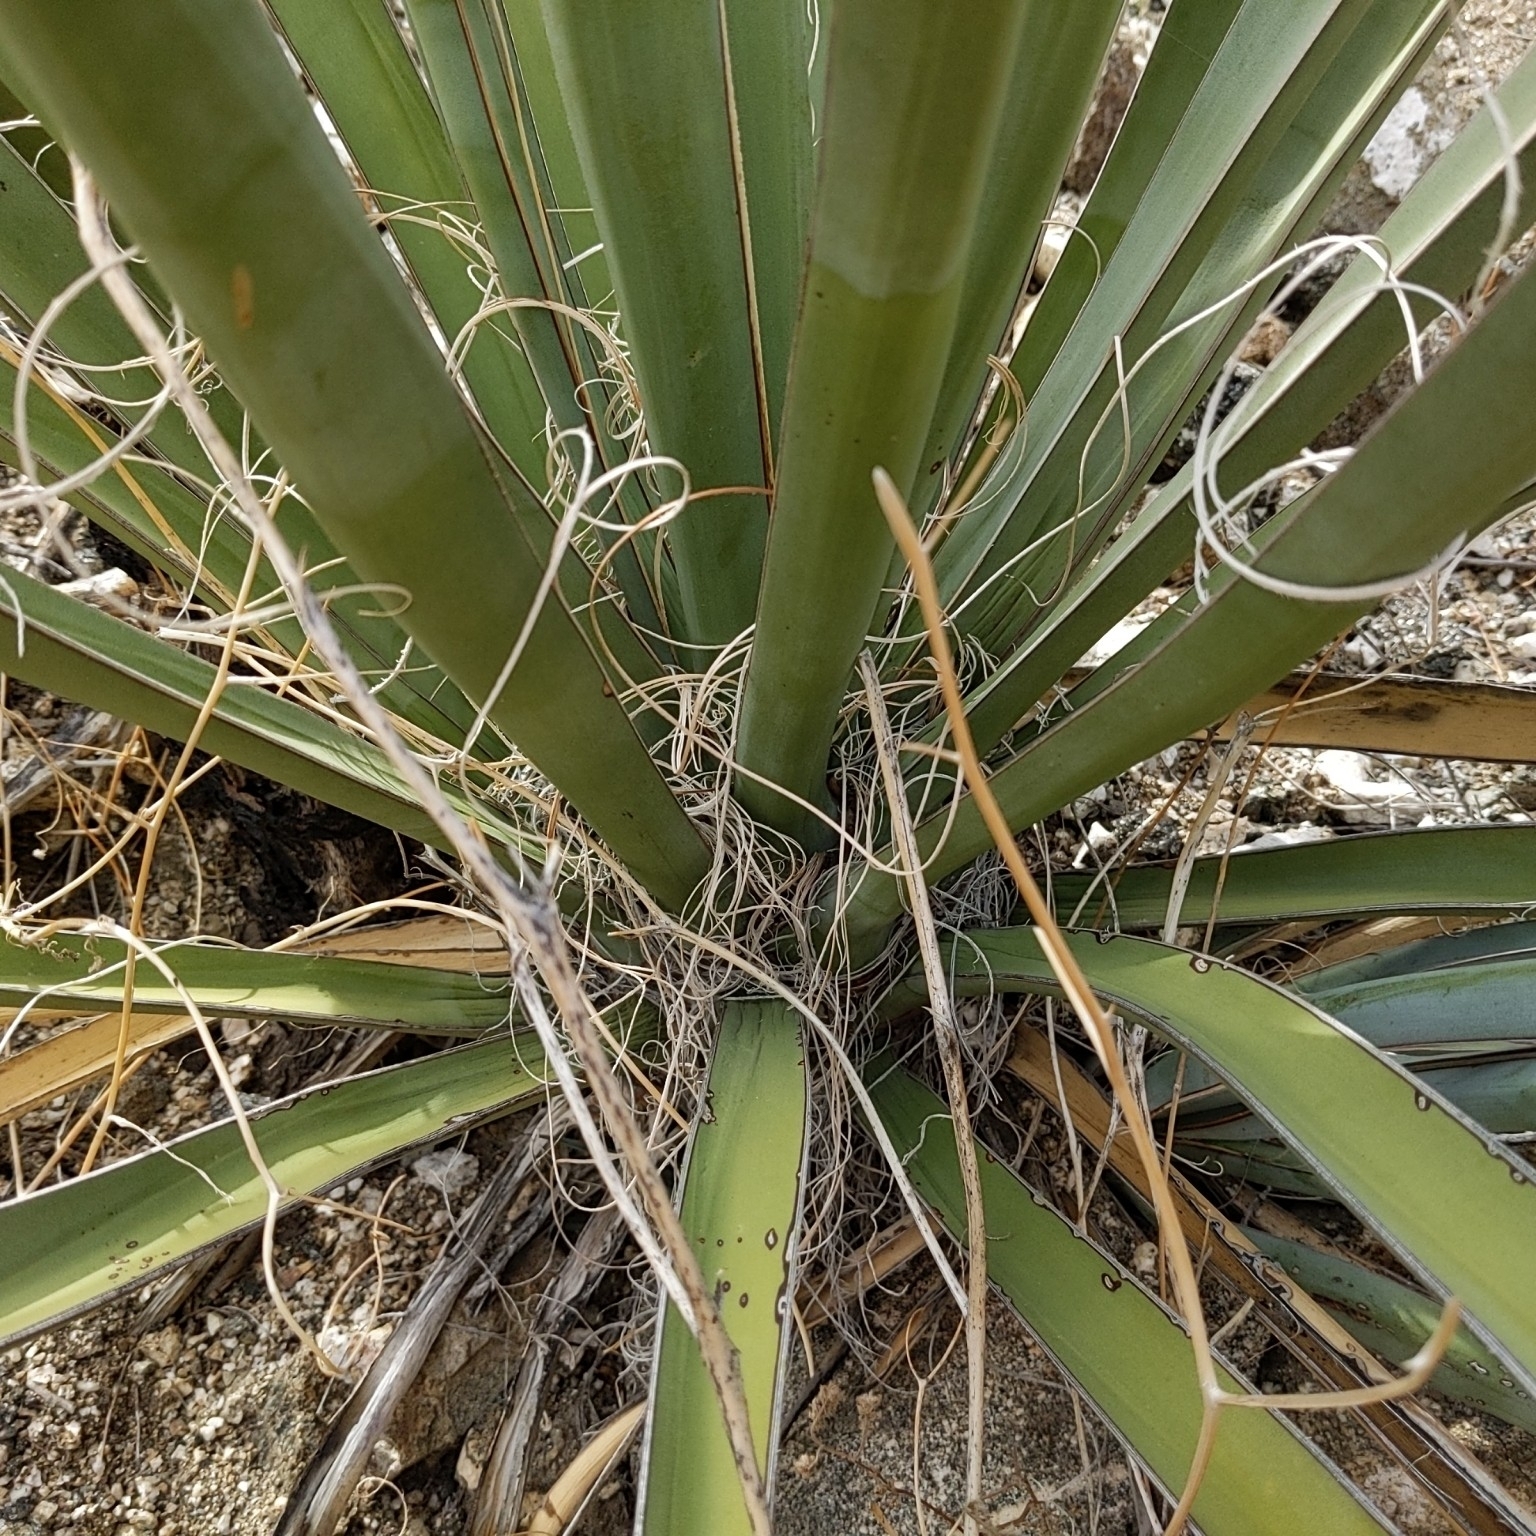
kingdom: Plantae
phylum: Tracheophyta
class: Liliopsida
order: Asparagales
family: Asparagaceae
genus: Yucca
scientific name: Yucca schidigera
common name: Mojave yucca
